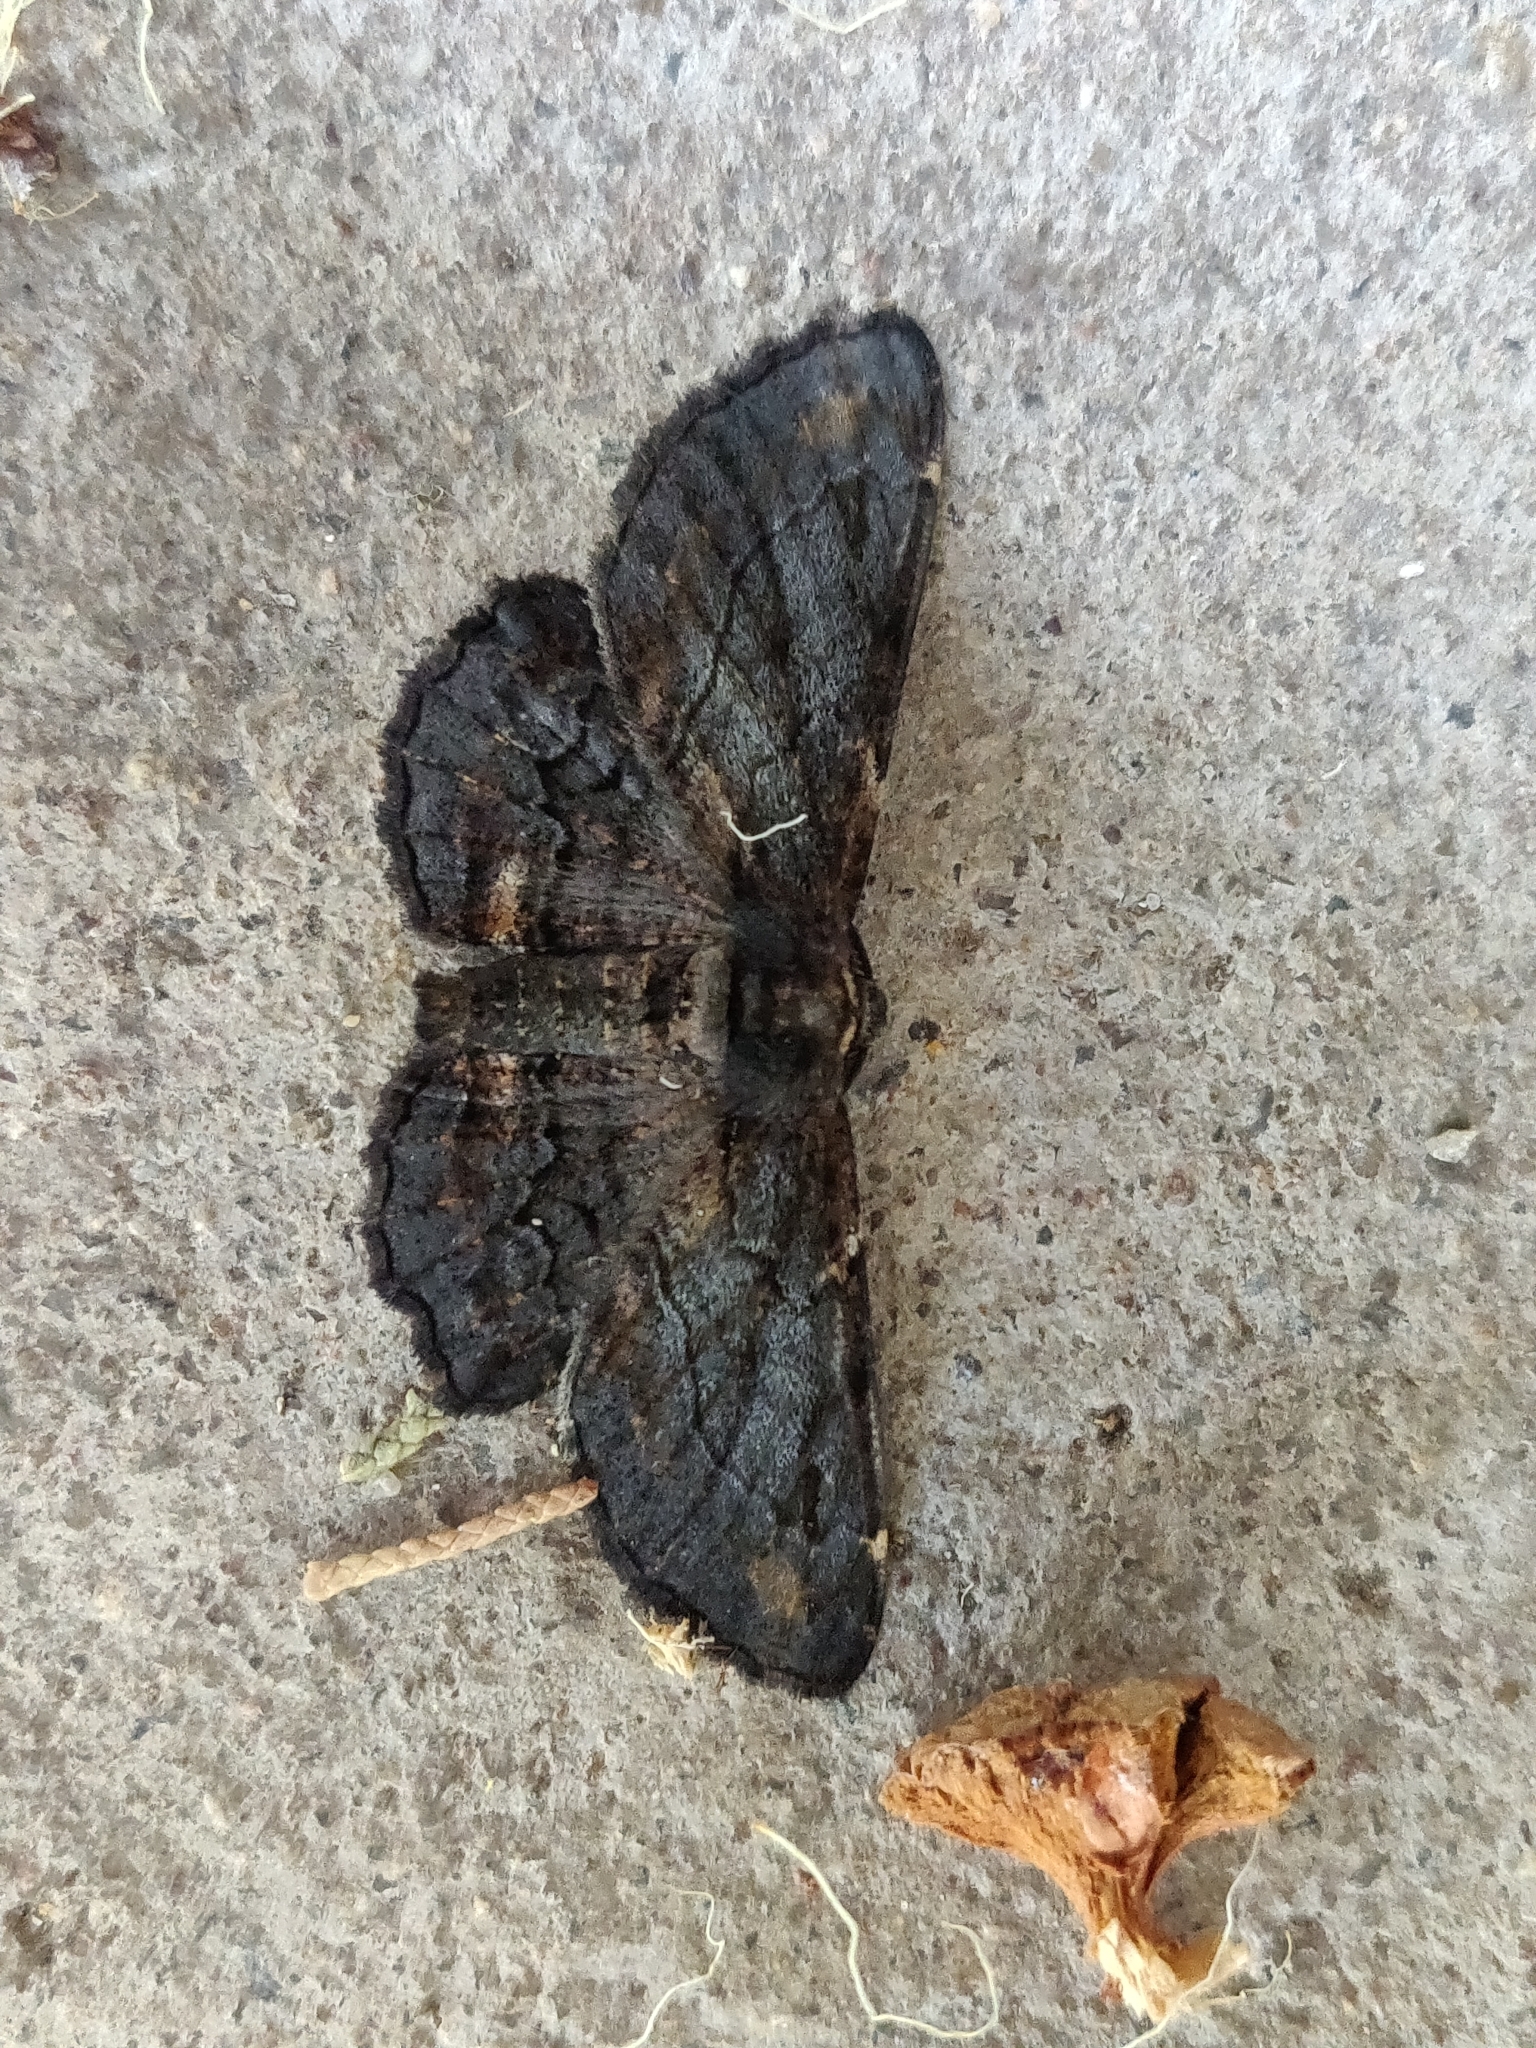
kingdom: Animalia
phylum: Arthropoda
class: Insecta
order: Lepidoptera
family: Geometridae
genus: Pholodes
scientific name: Pholodes sinistraria
